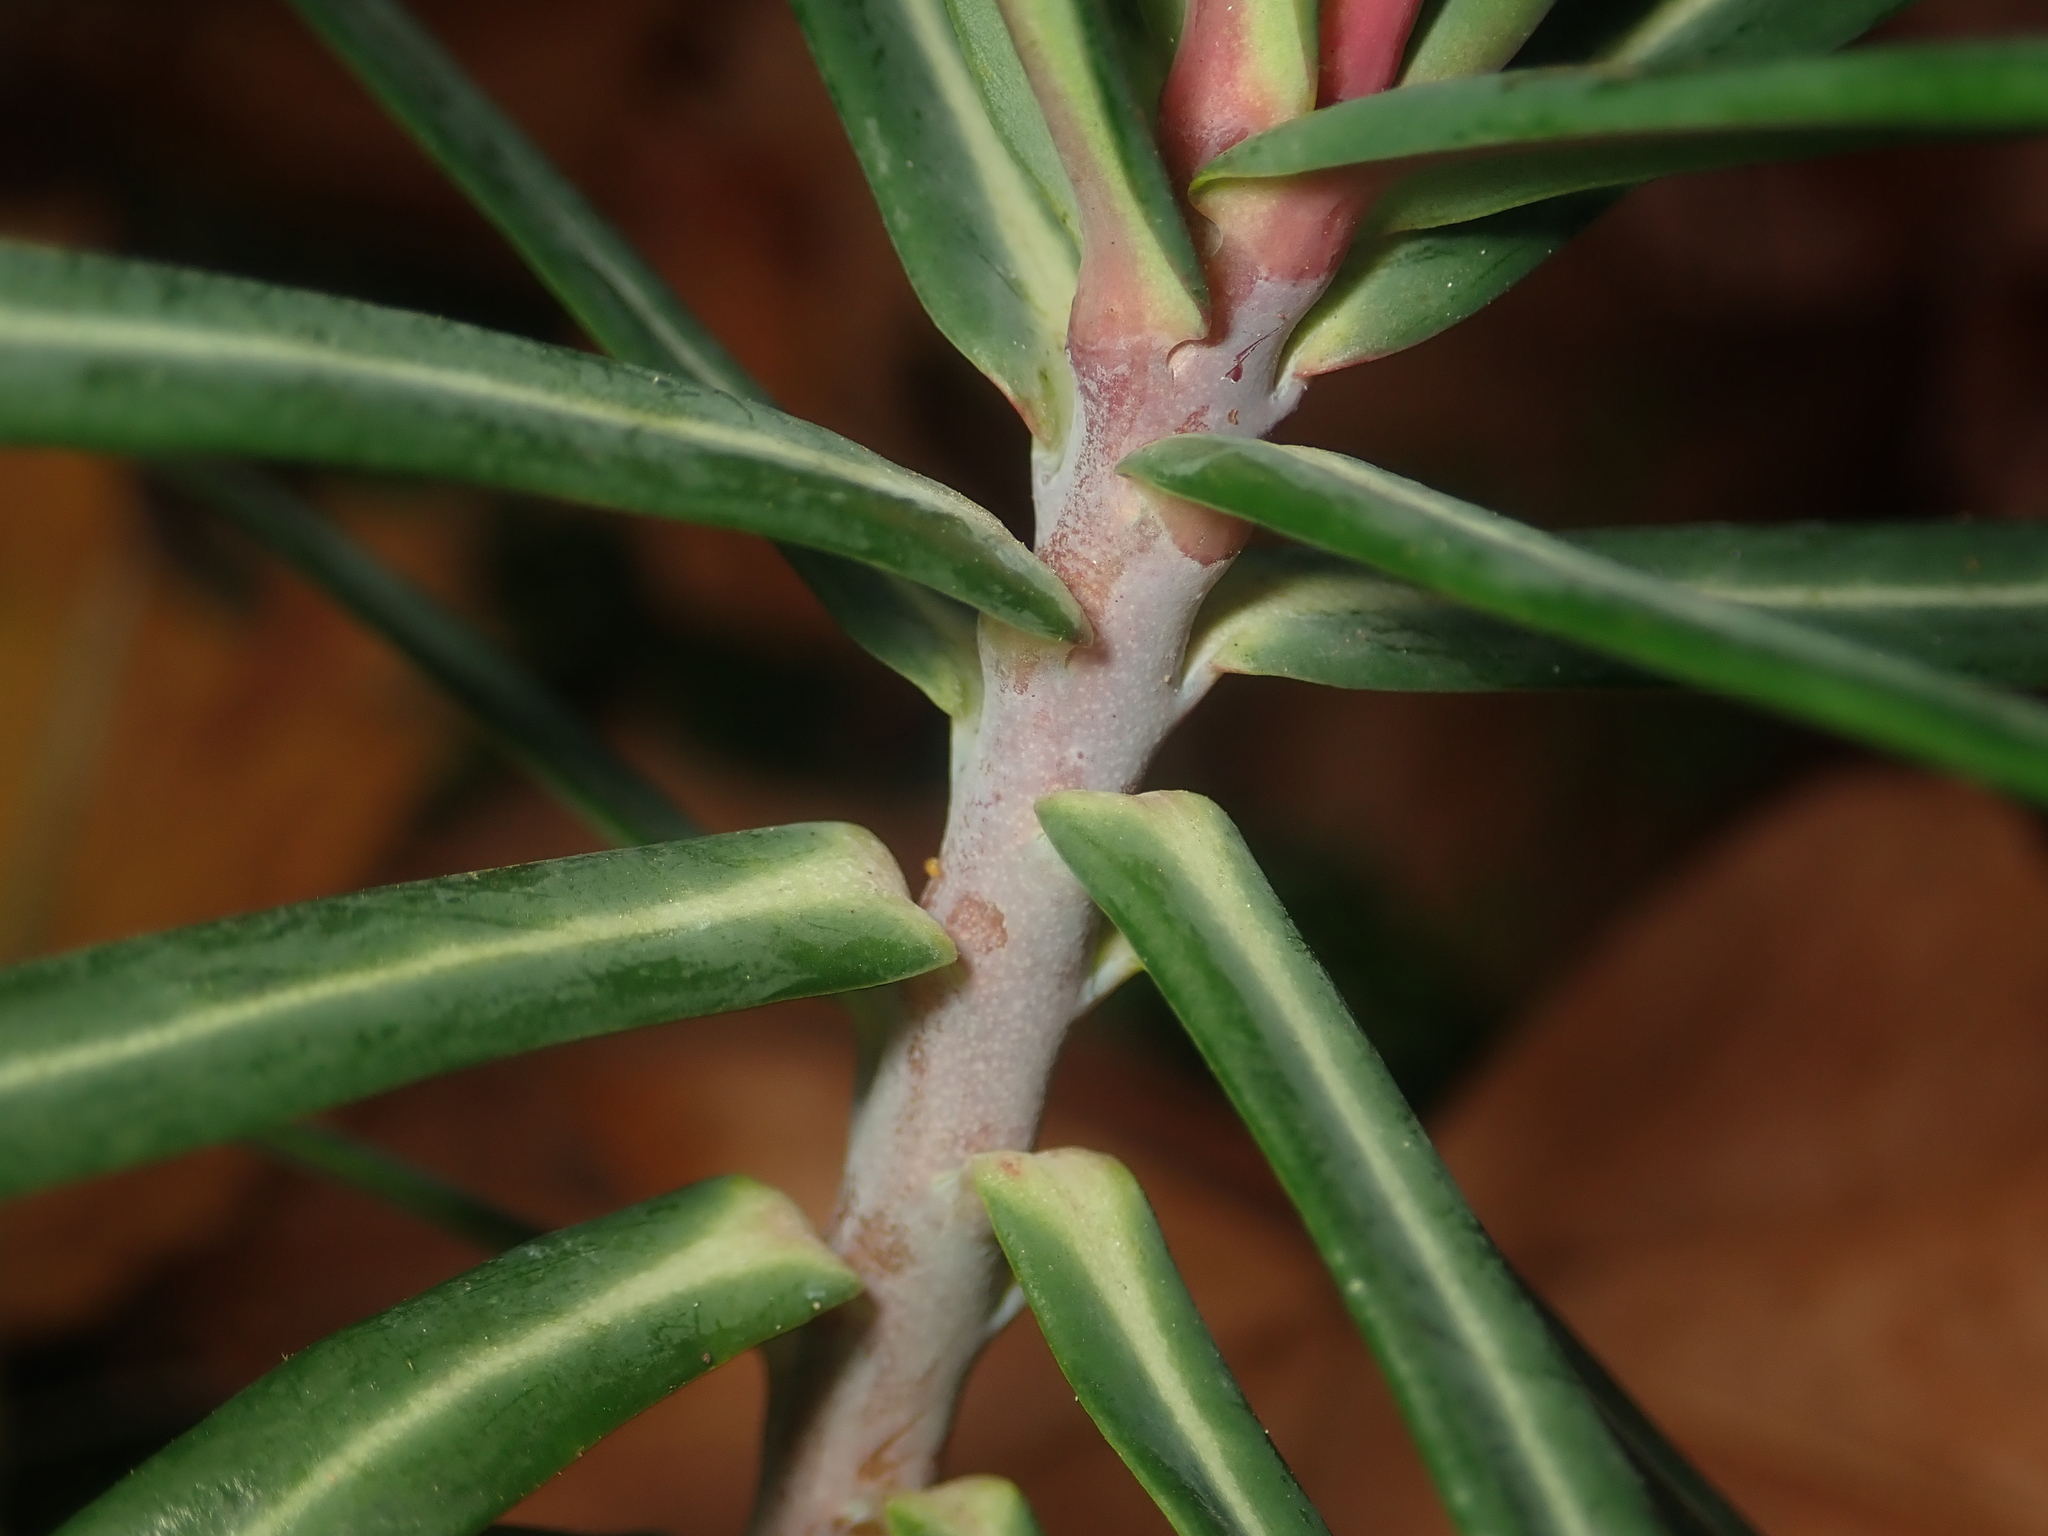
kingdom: Plantae
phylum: Tracheophyta
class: Magnoliopsida
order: Malpighiales
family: Euphorbiaceae
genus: Euphorbia
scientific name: Euphorbia lathyris
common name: Caper spurge
